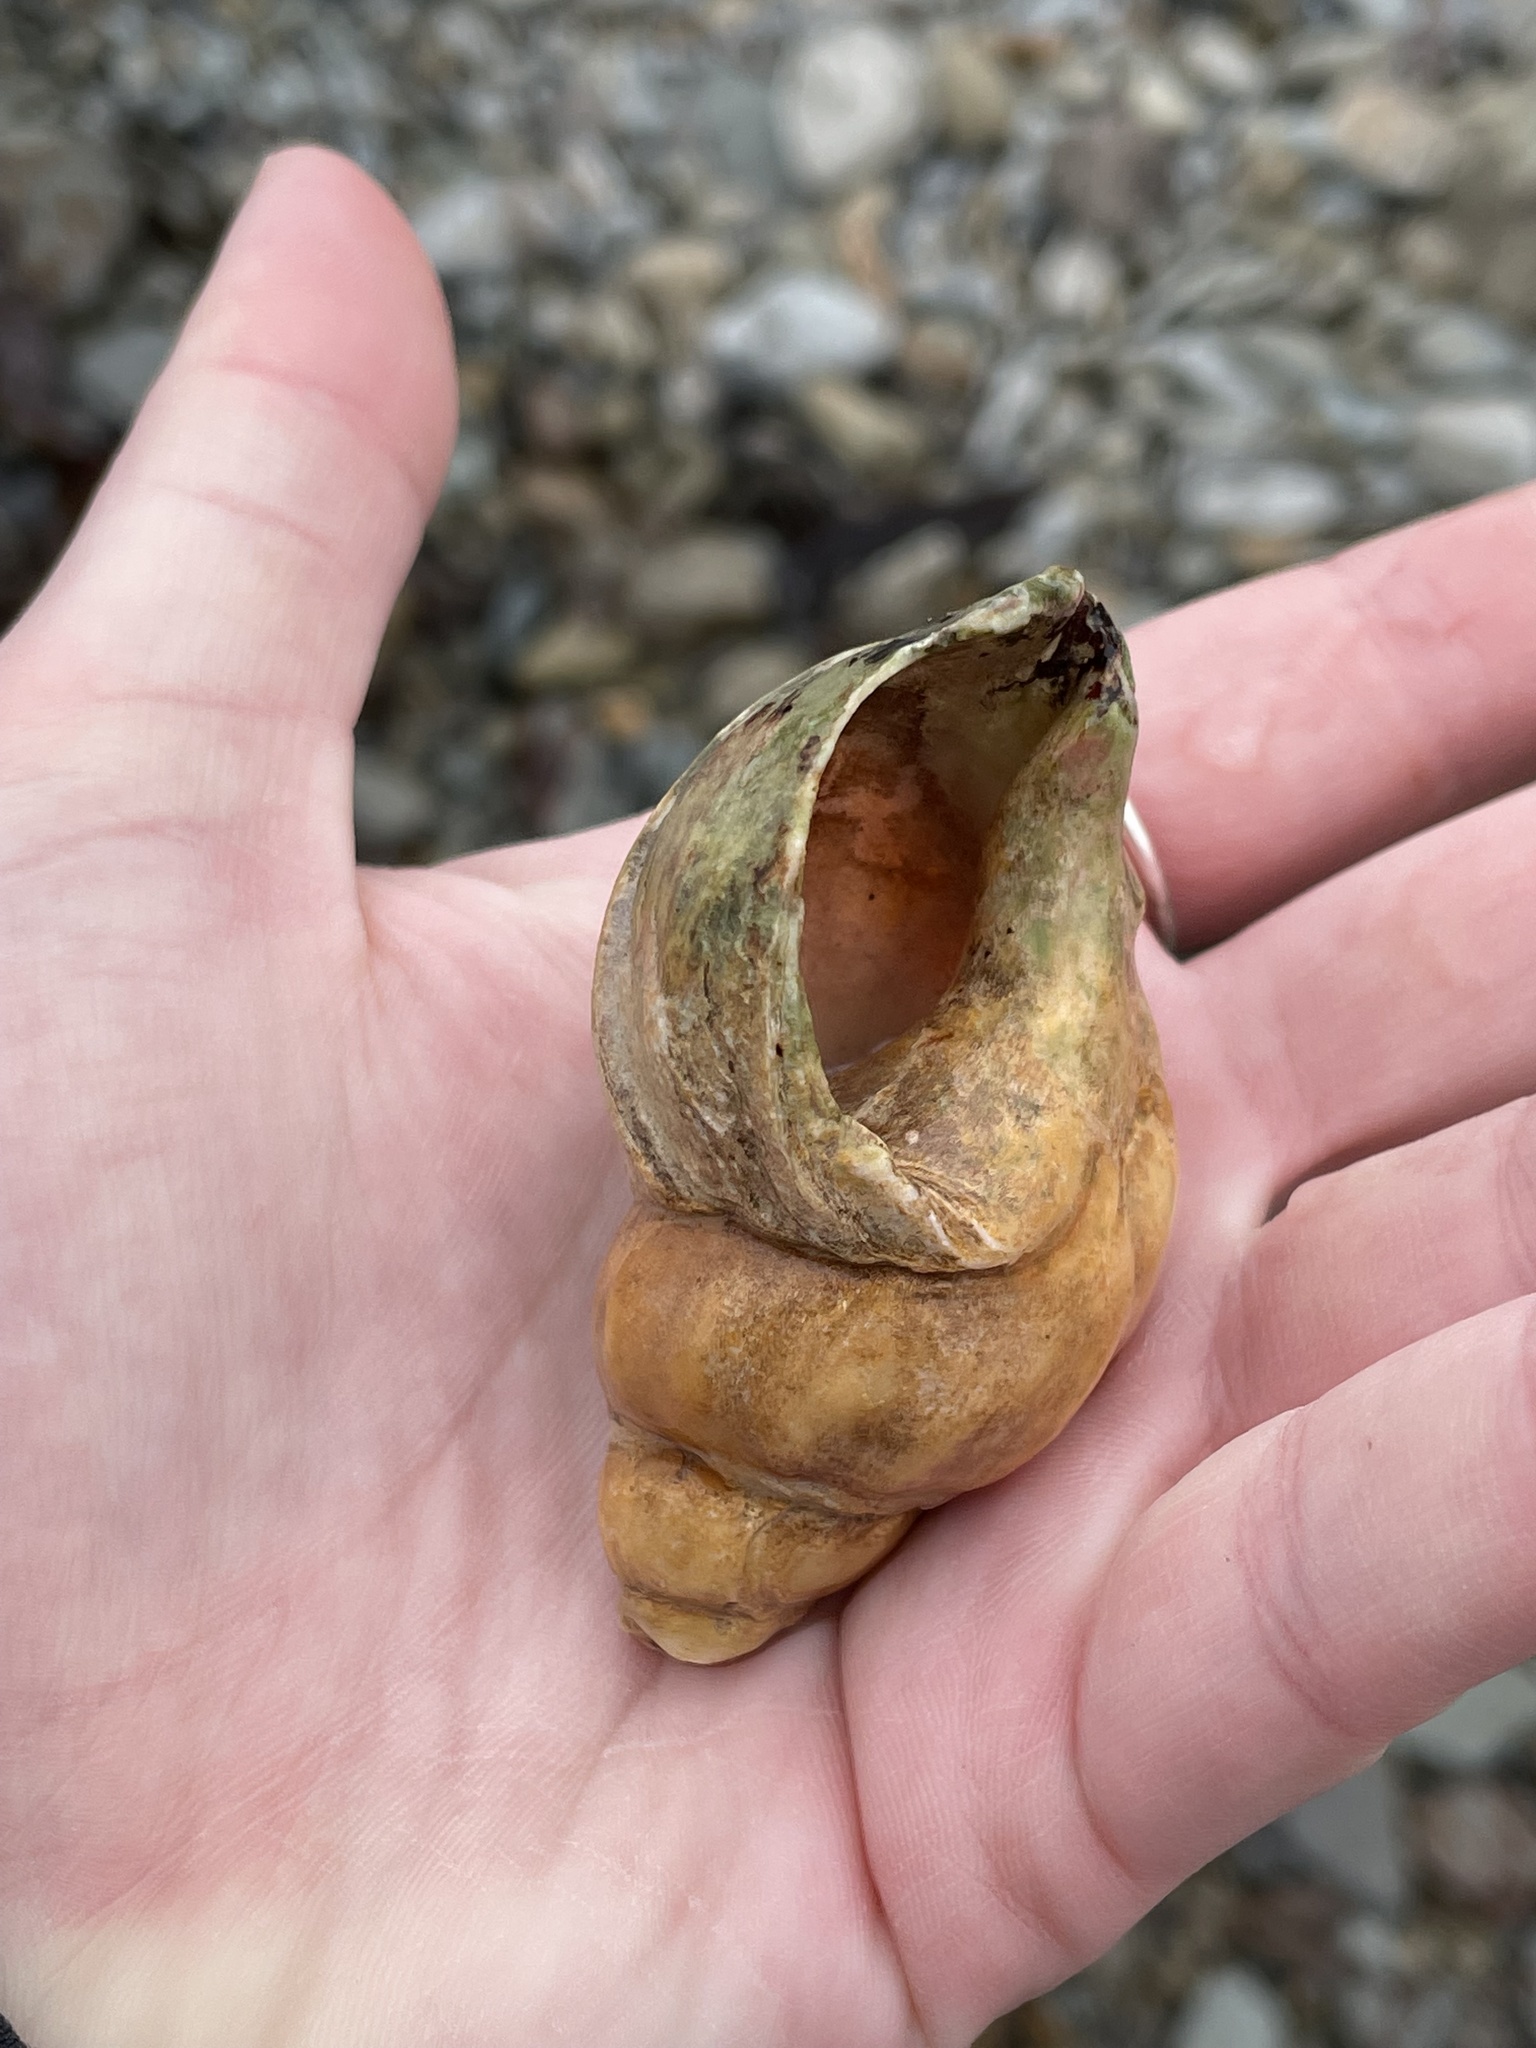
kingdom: Animalia
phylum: Mollusca
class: Gastropoda
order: Neogastropoda
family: Buccinidae
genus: Buccinum
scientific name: Buccinum undatum
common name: Common whelk
